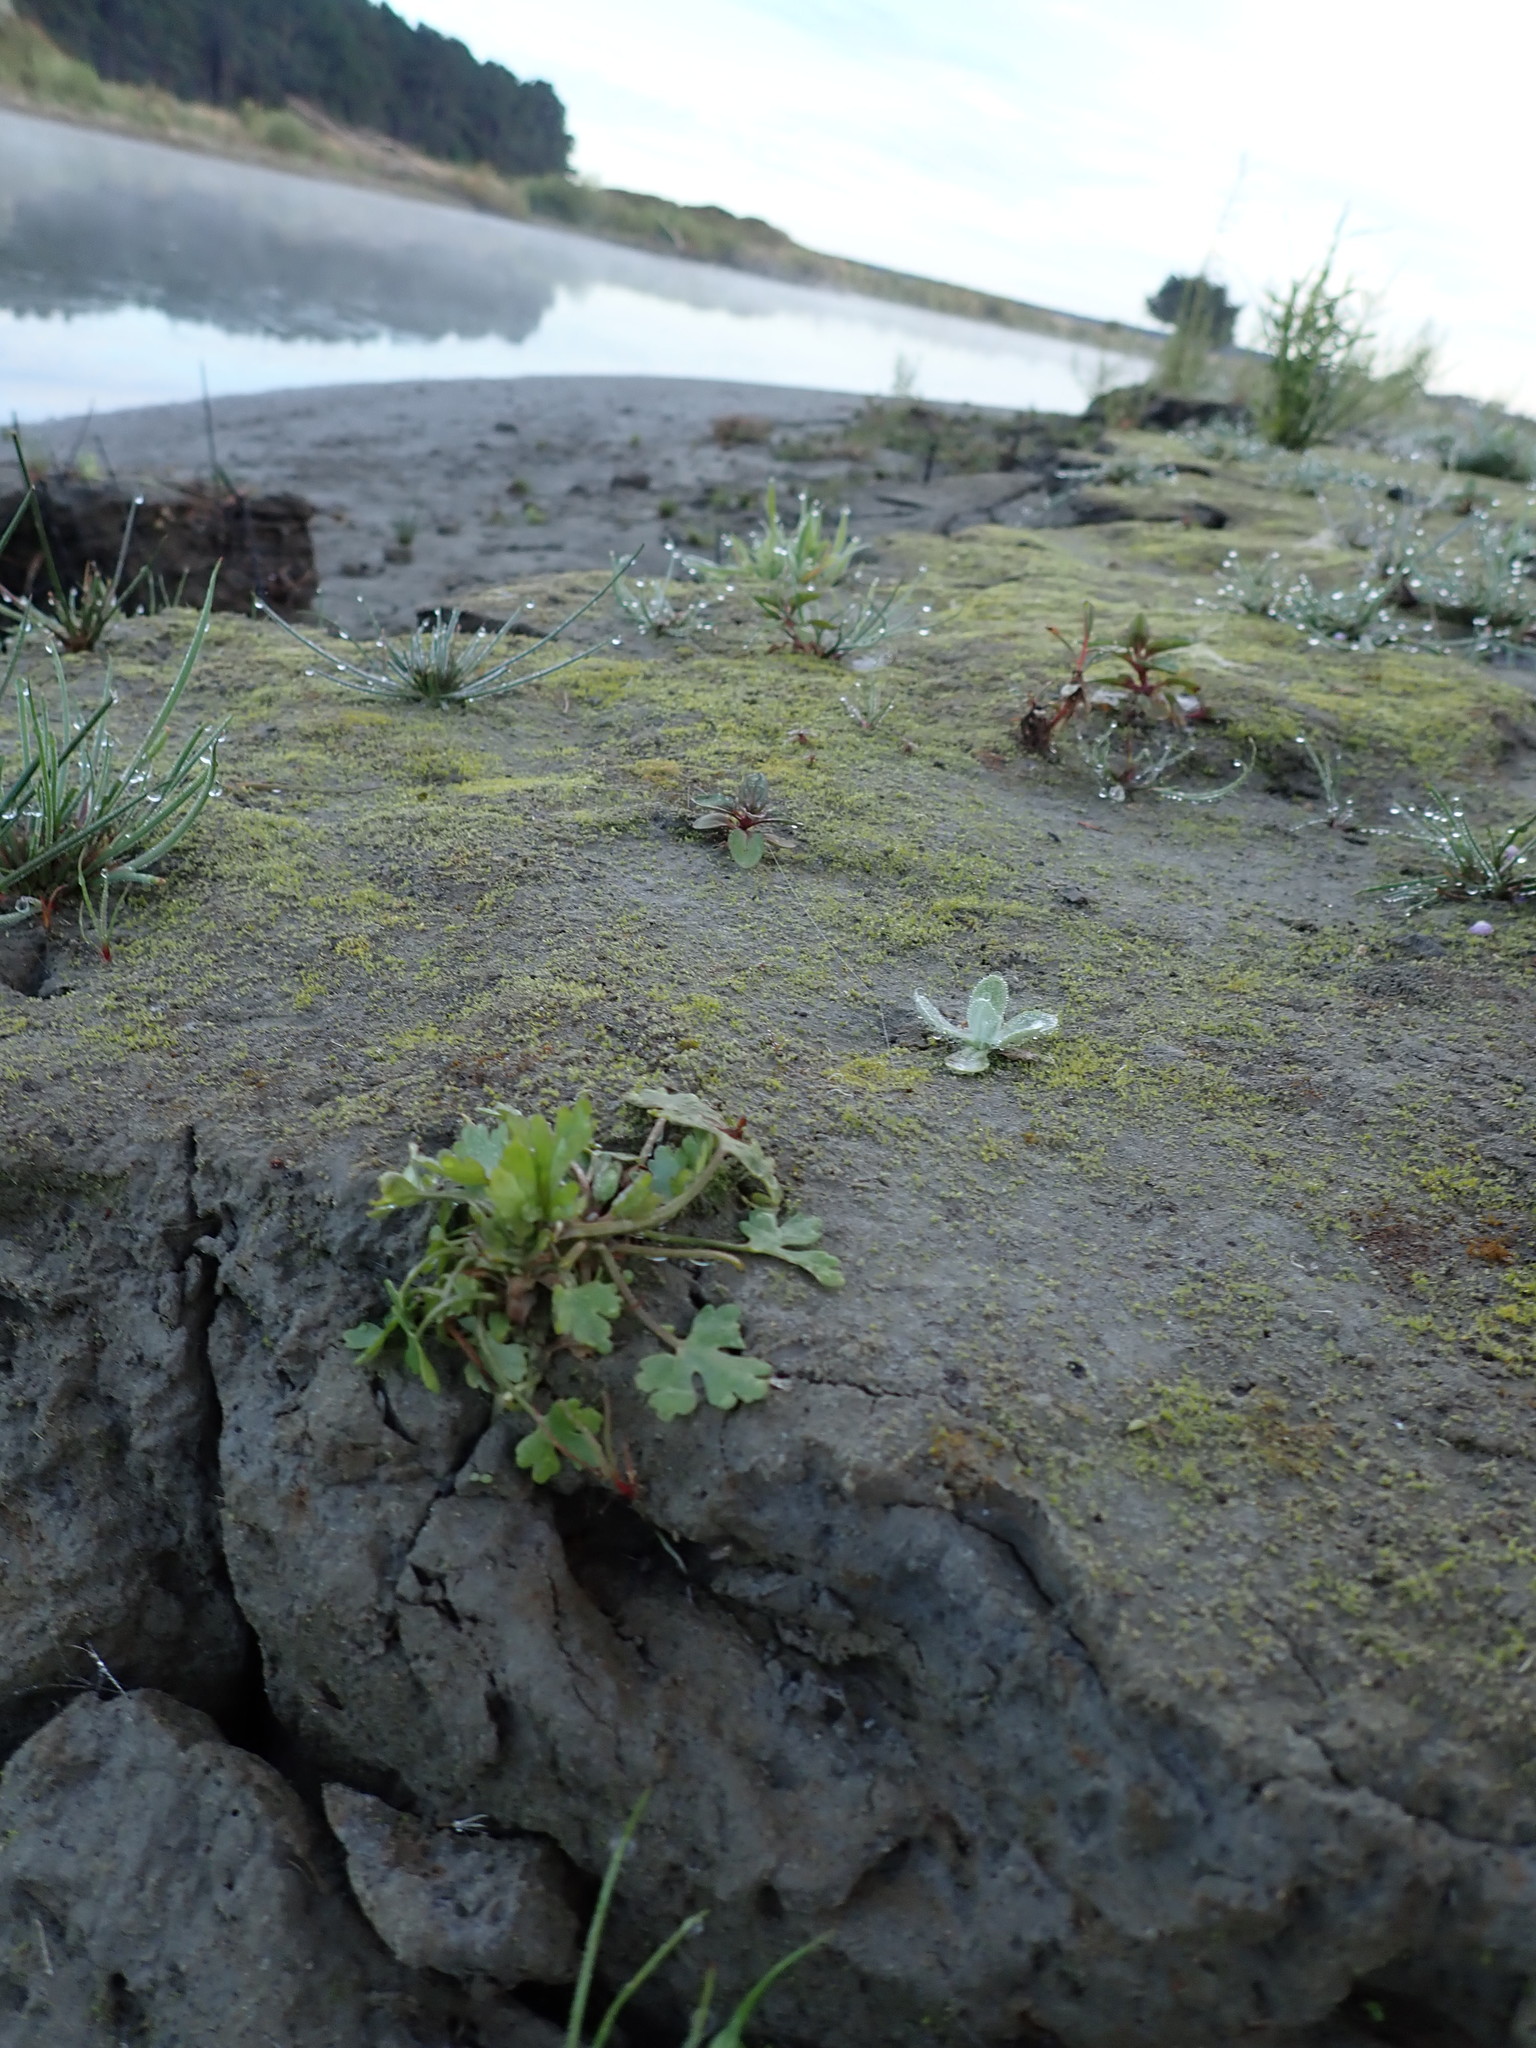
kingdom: Plantae
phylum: Tracheophyta
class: Magnoliopsida
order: Apiales
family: Apiaceae
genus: Apium
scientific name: Apium prostratum
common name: Prostrate marshwort
